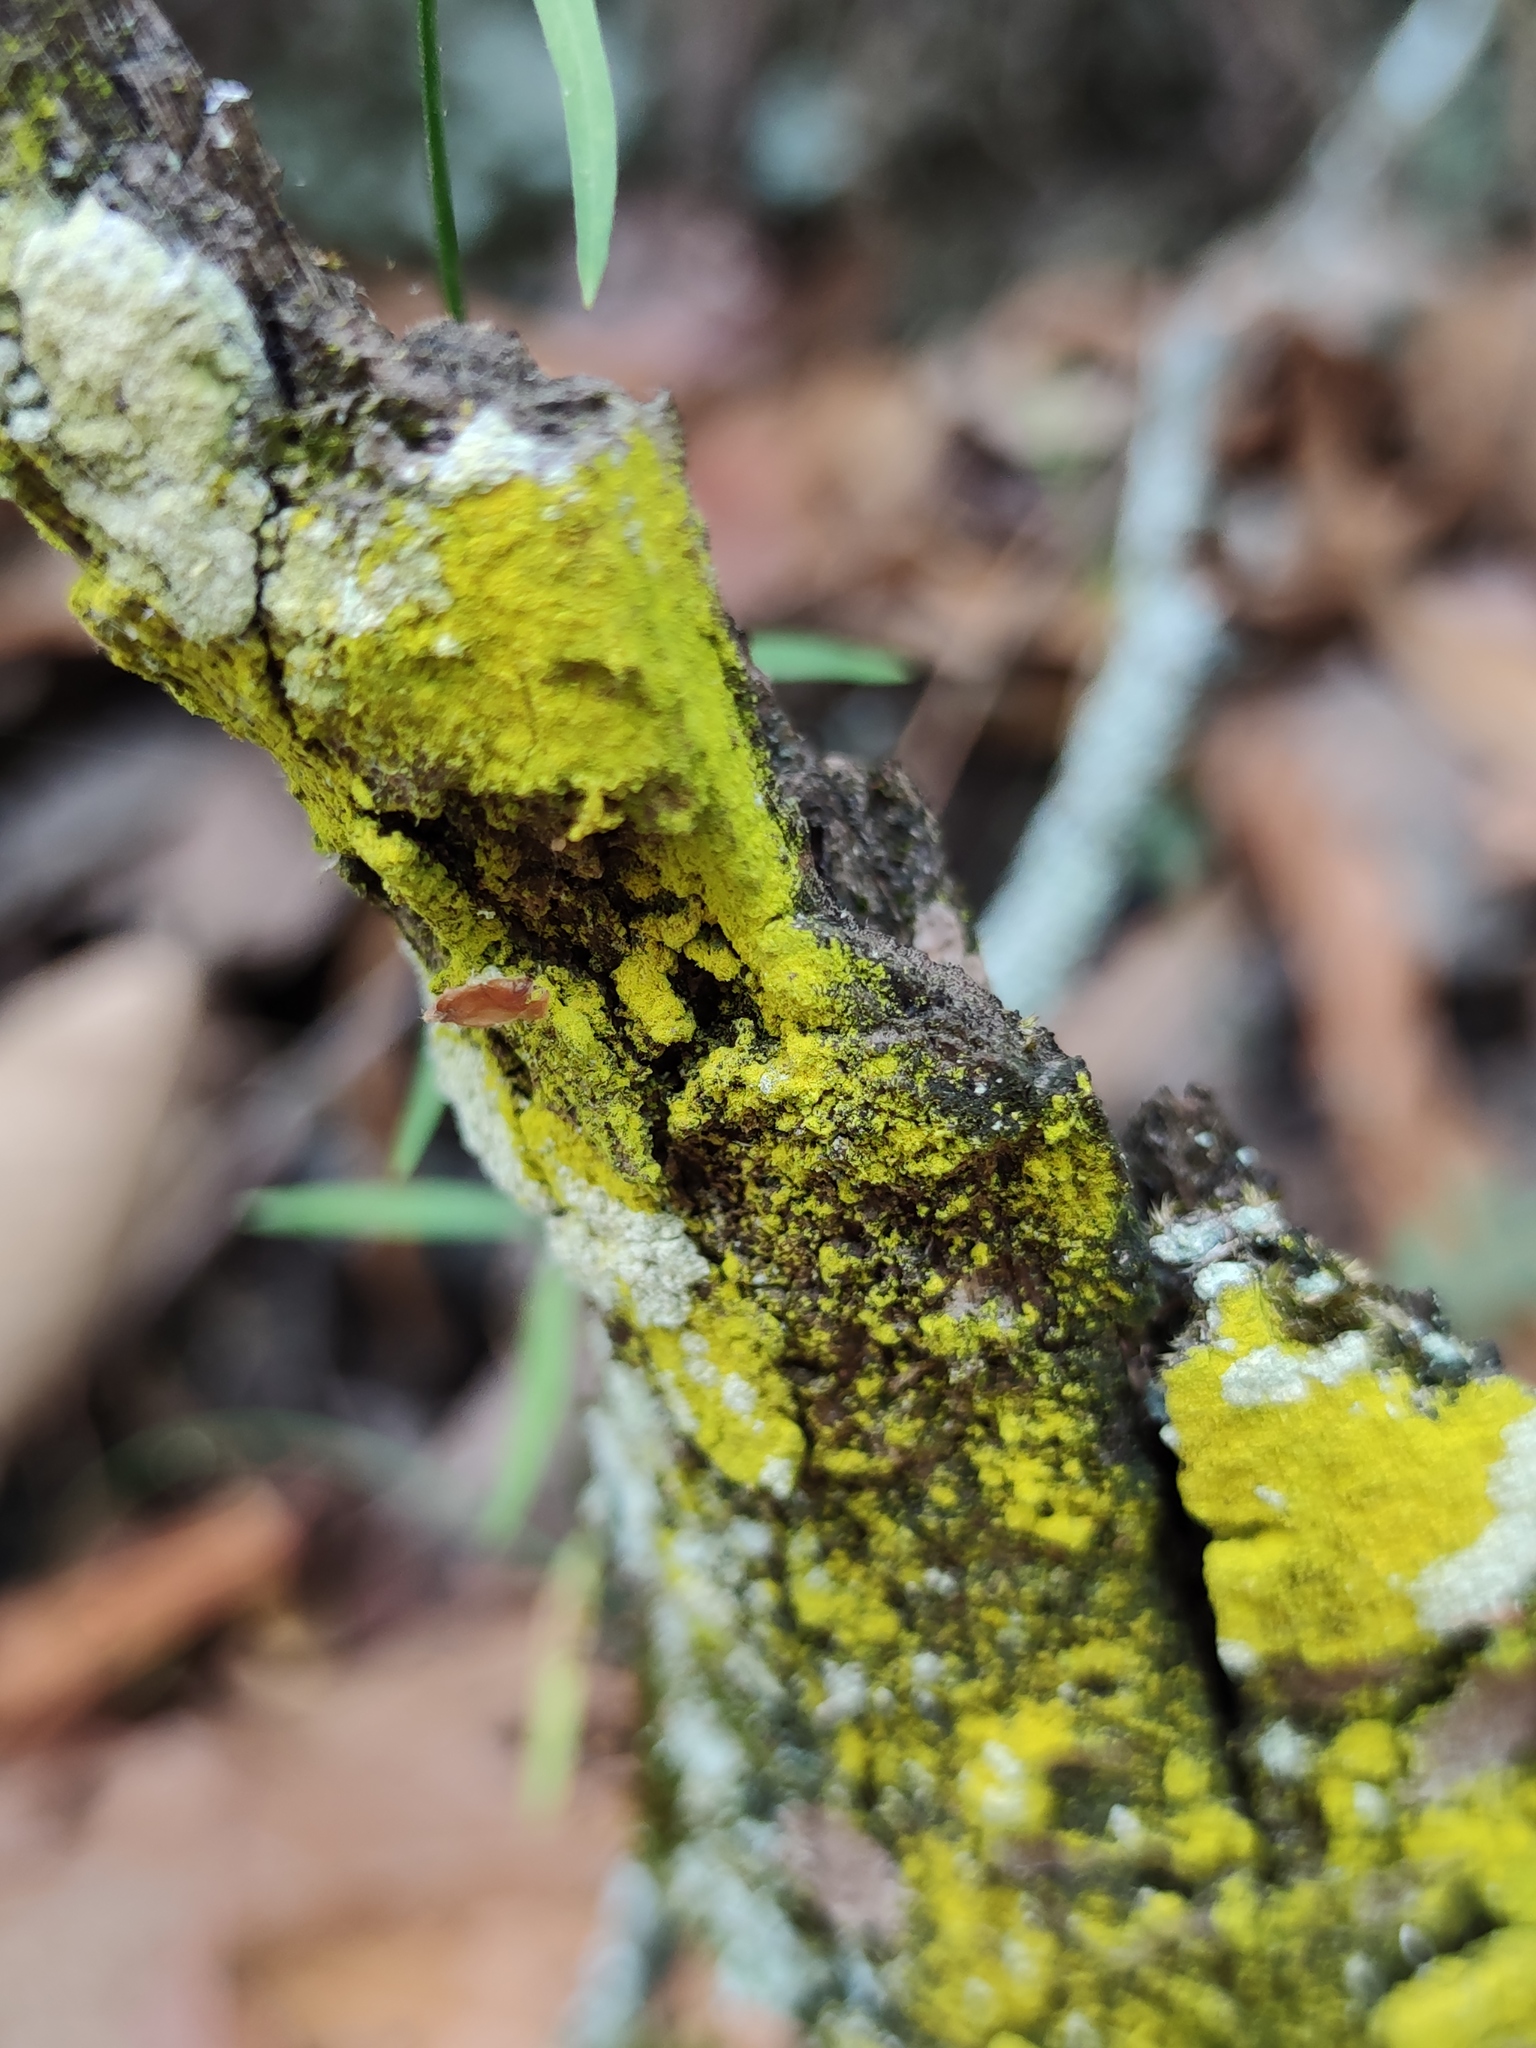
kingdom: Fungi
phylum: Ascomycota
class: Arthoniomycetes
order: Arthoniales
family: Chrysotrichaceae
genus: Chrysothrix
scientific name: Chrysothrix xanthina
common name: Common gold-dust
